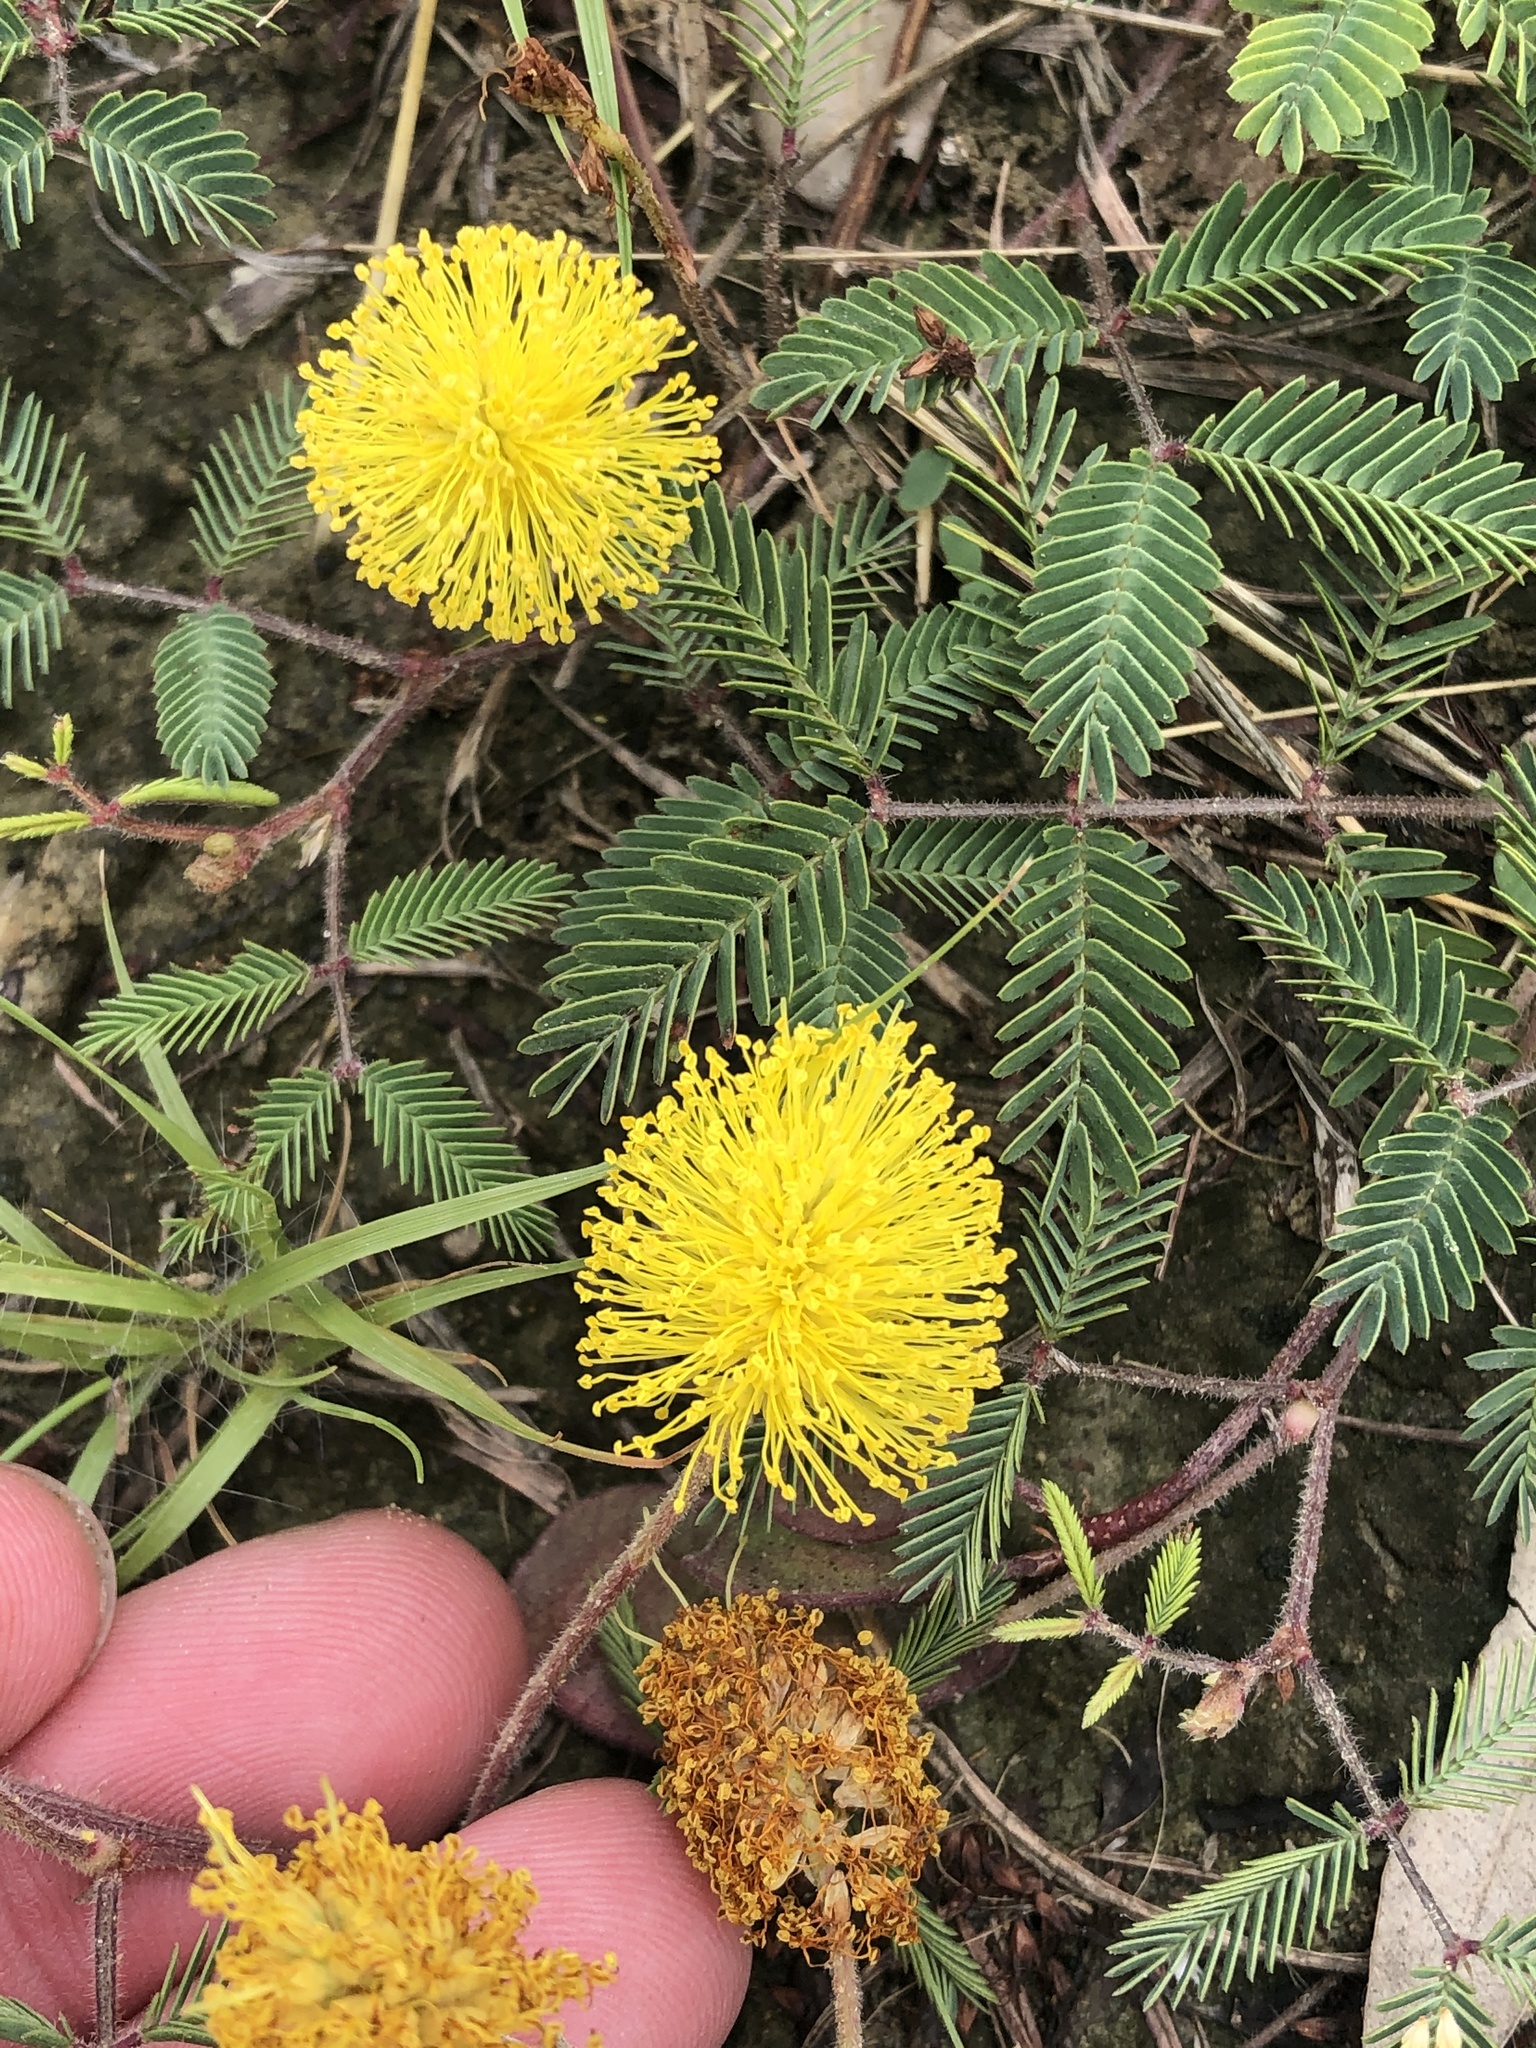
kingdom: Plantae
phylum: Tracheophyta
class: Magnoliopsida
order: Fabales
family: Fabaceae
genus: Neptunia
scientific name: Neptunia lutea
